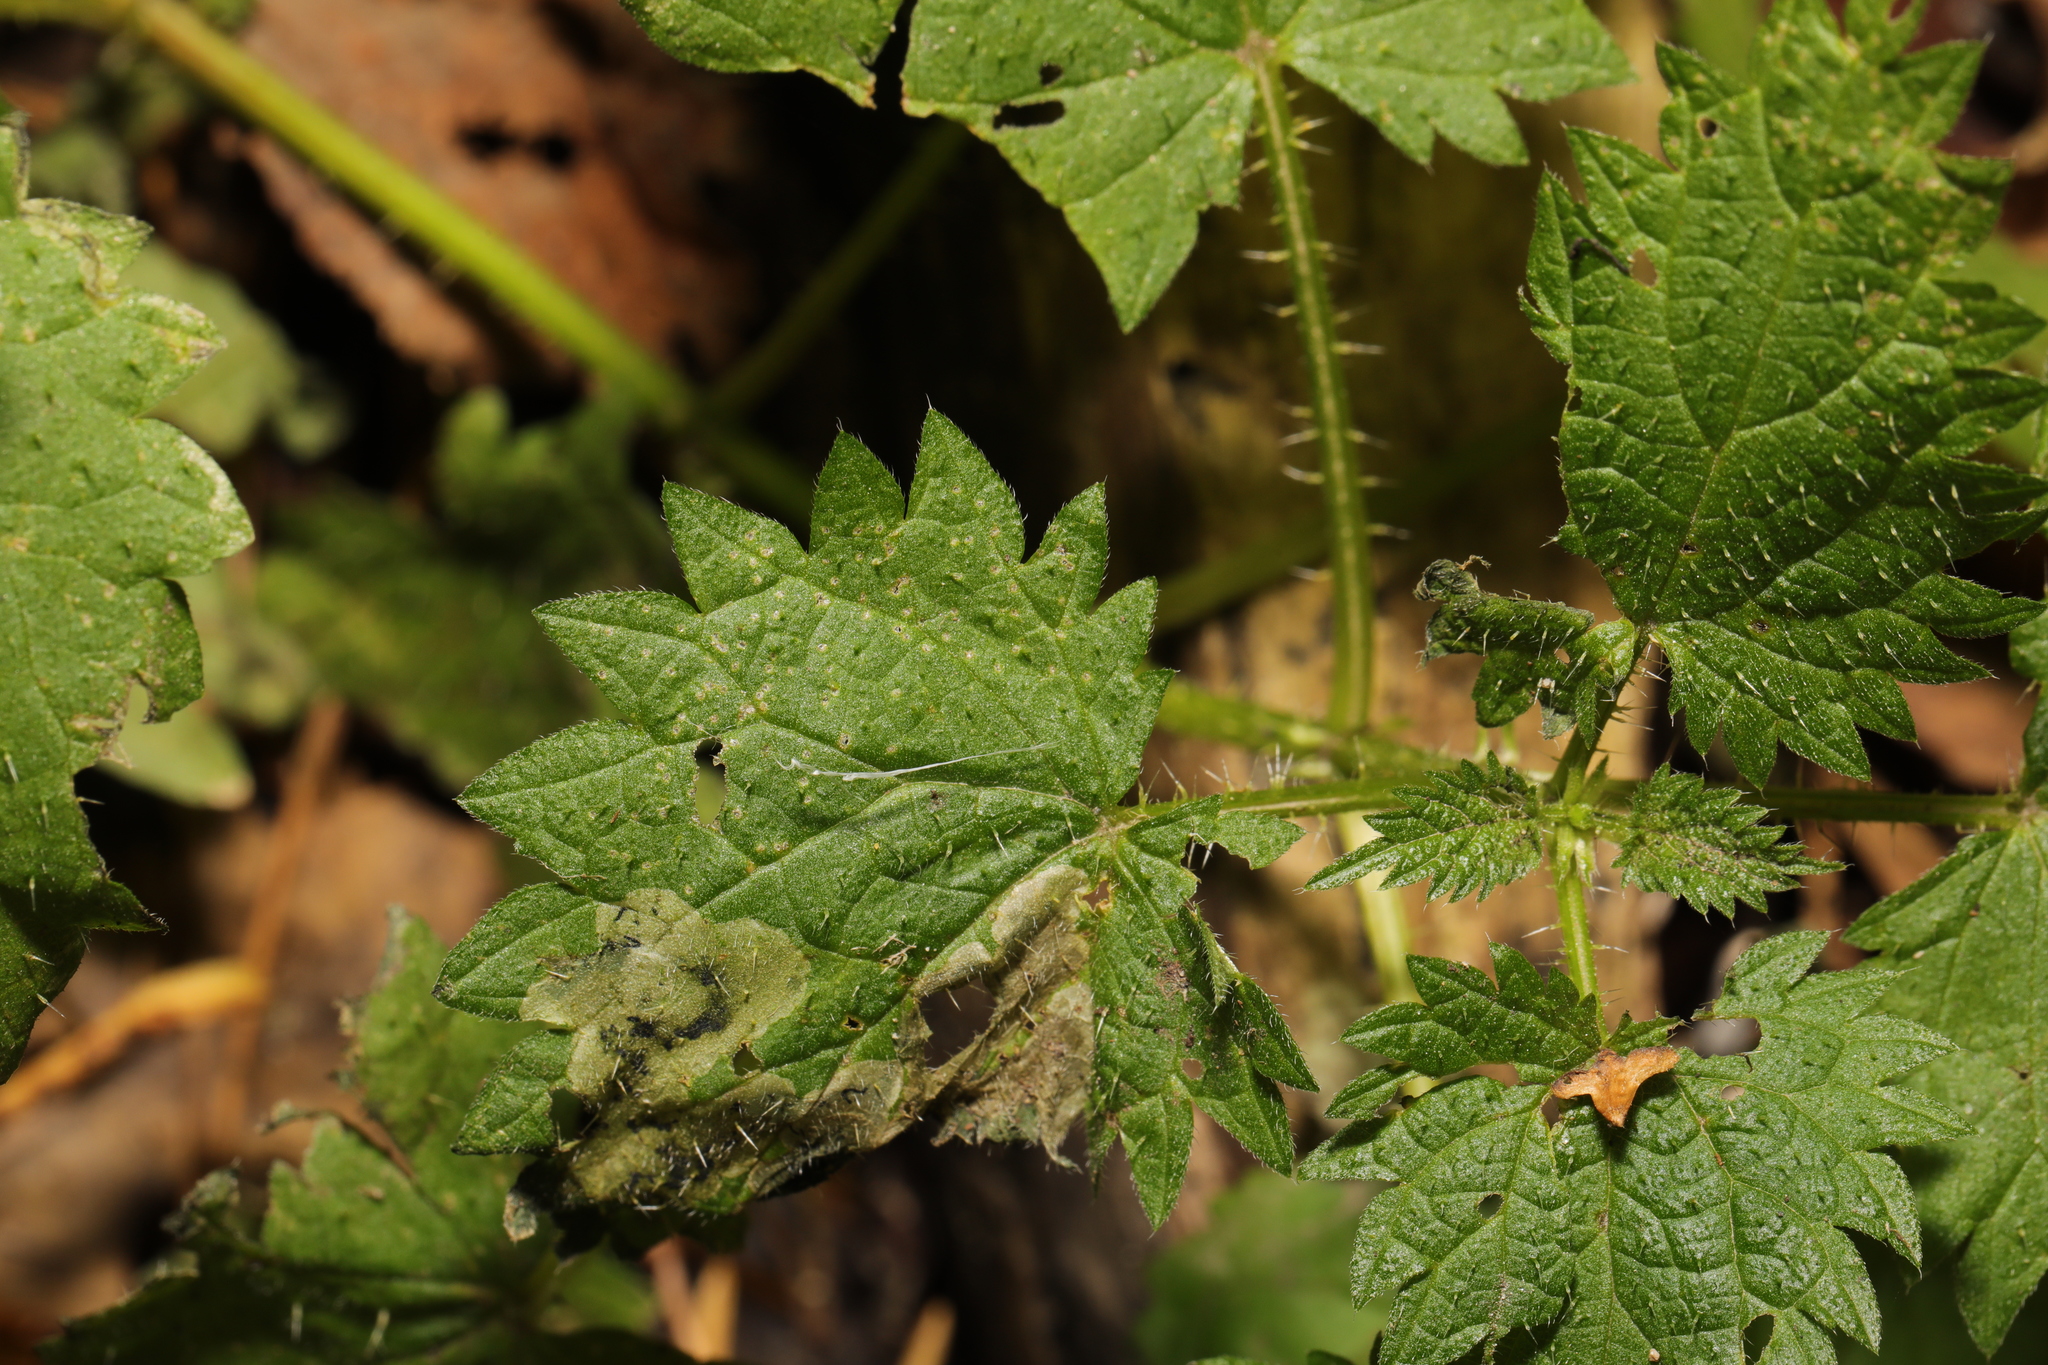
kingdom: Animalia
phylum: Arthropoda
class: Insecta
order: Diptera
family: Agromyzidae
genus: Agromyza
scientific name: Agromyza anthracina
